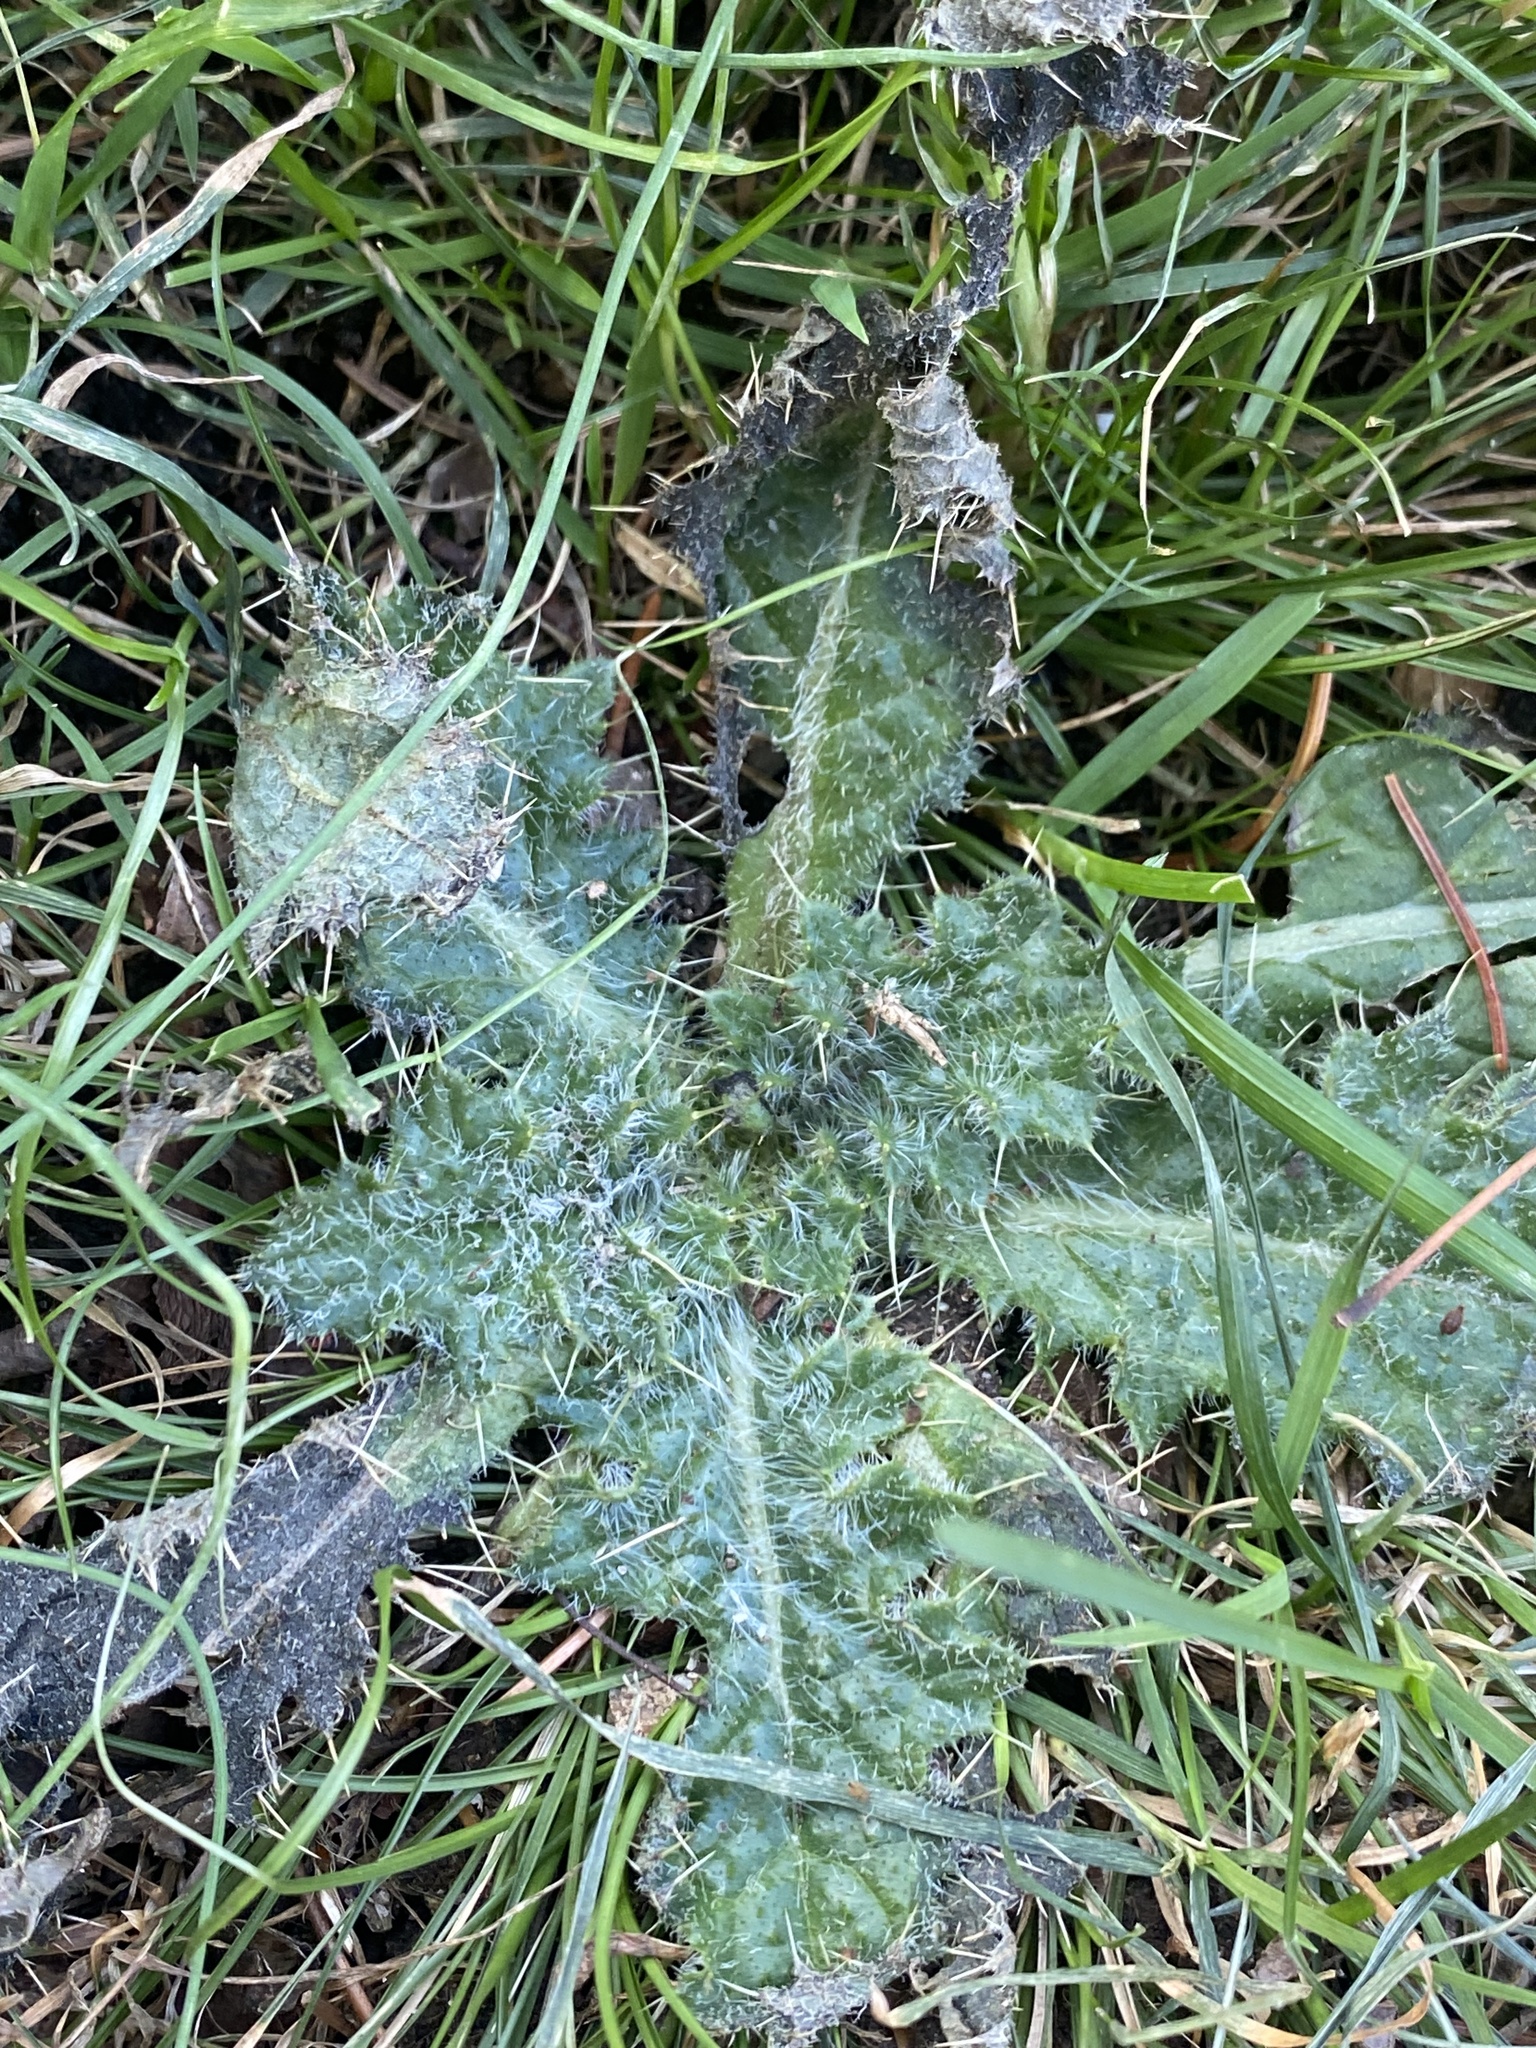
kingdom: Plantae
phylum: Tracheophyta
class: Magnoliopsida
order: Asterales
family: Asteraceae
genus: Cirsium
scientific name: Cirsium vulgare
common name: Bull thistle
